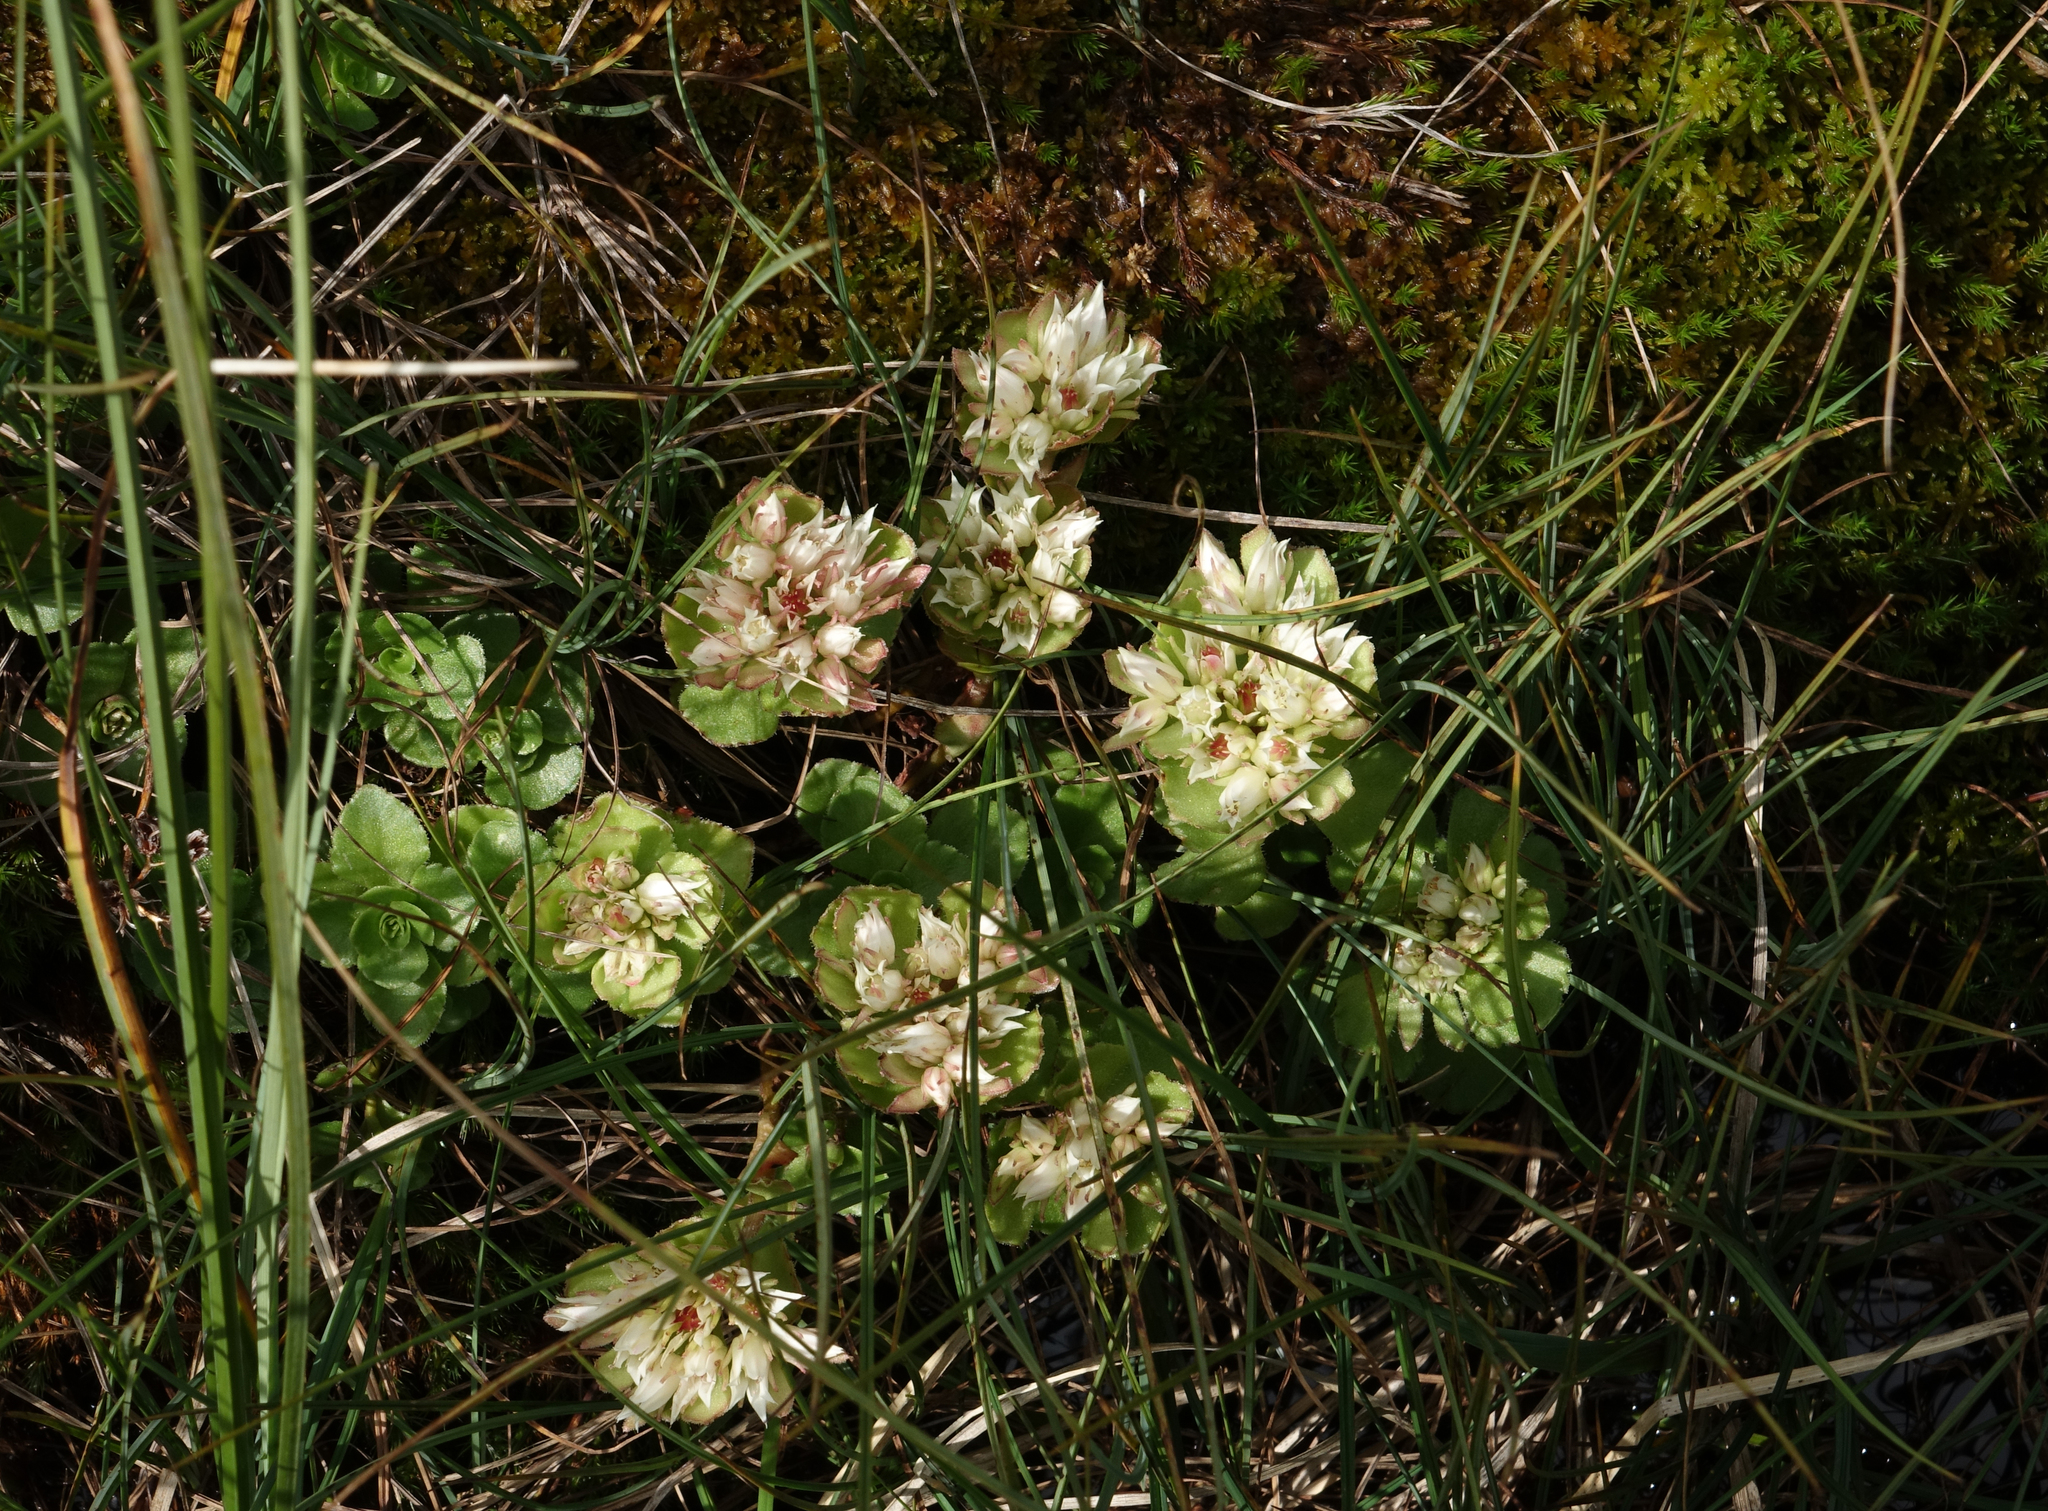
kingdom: Plantae
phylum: Tracheophyta
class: Magnoliopsida
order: Saxifragales
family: Crassulaceae
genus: Phedimus
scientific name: Phedimus spurius
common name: Caucasian stonecrop
